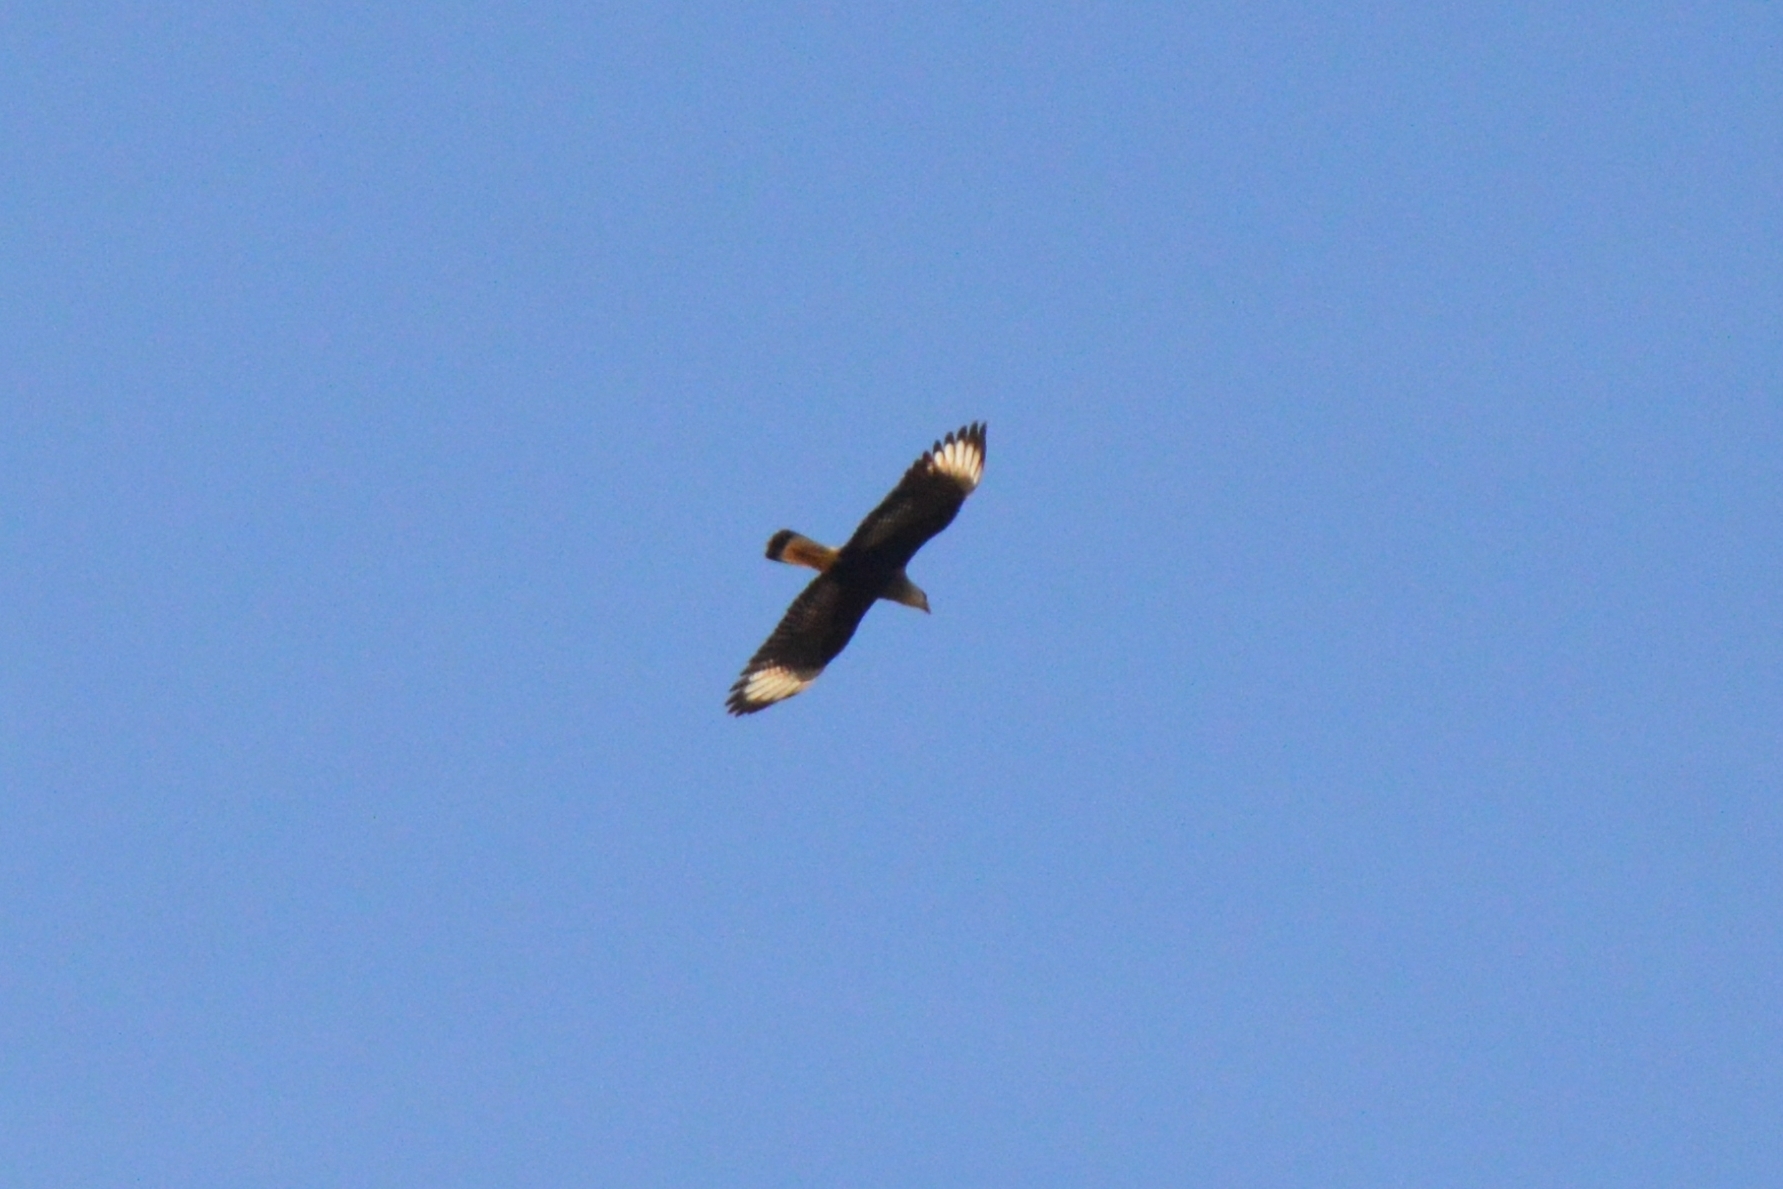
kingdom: Animalia
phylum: Chordata
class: Aves
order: Falconiformes
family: Falconidae
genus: Caracara
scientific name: Caracara plancus
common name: Southern caracara
